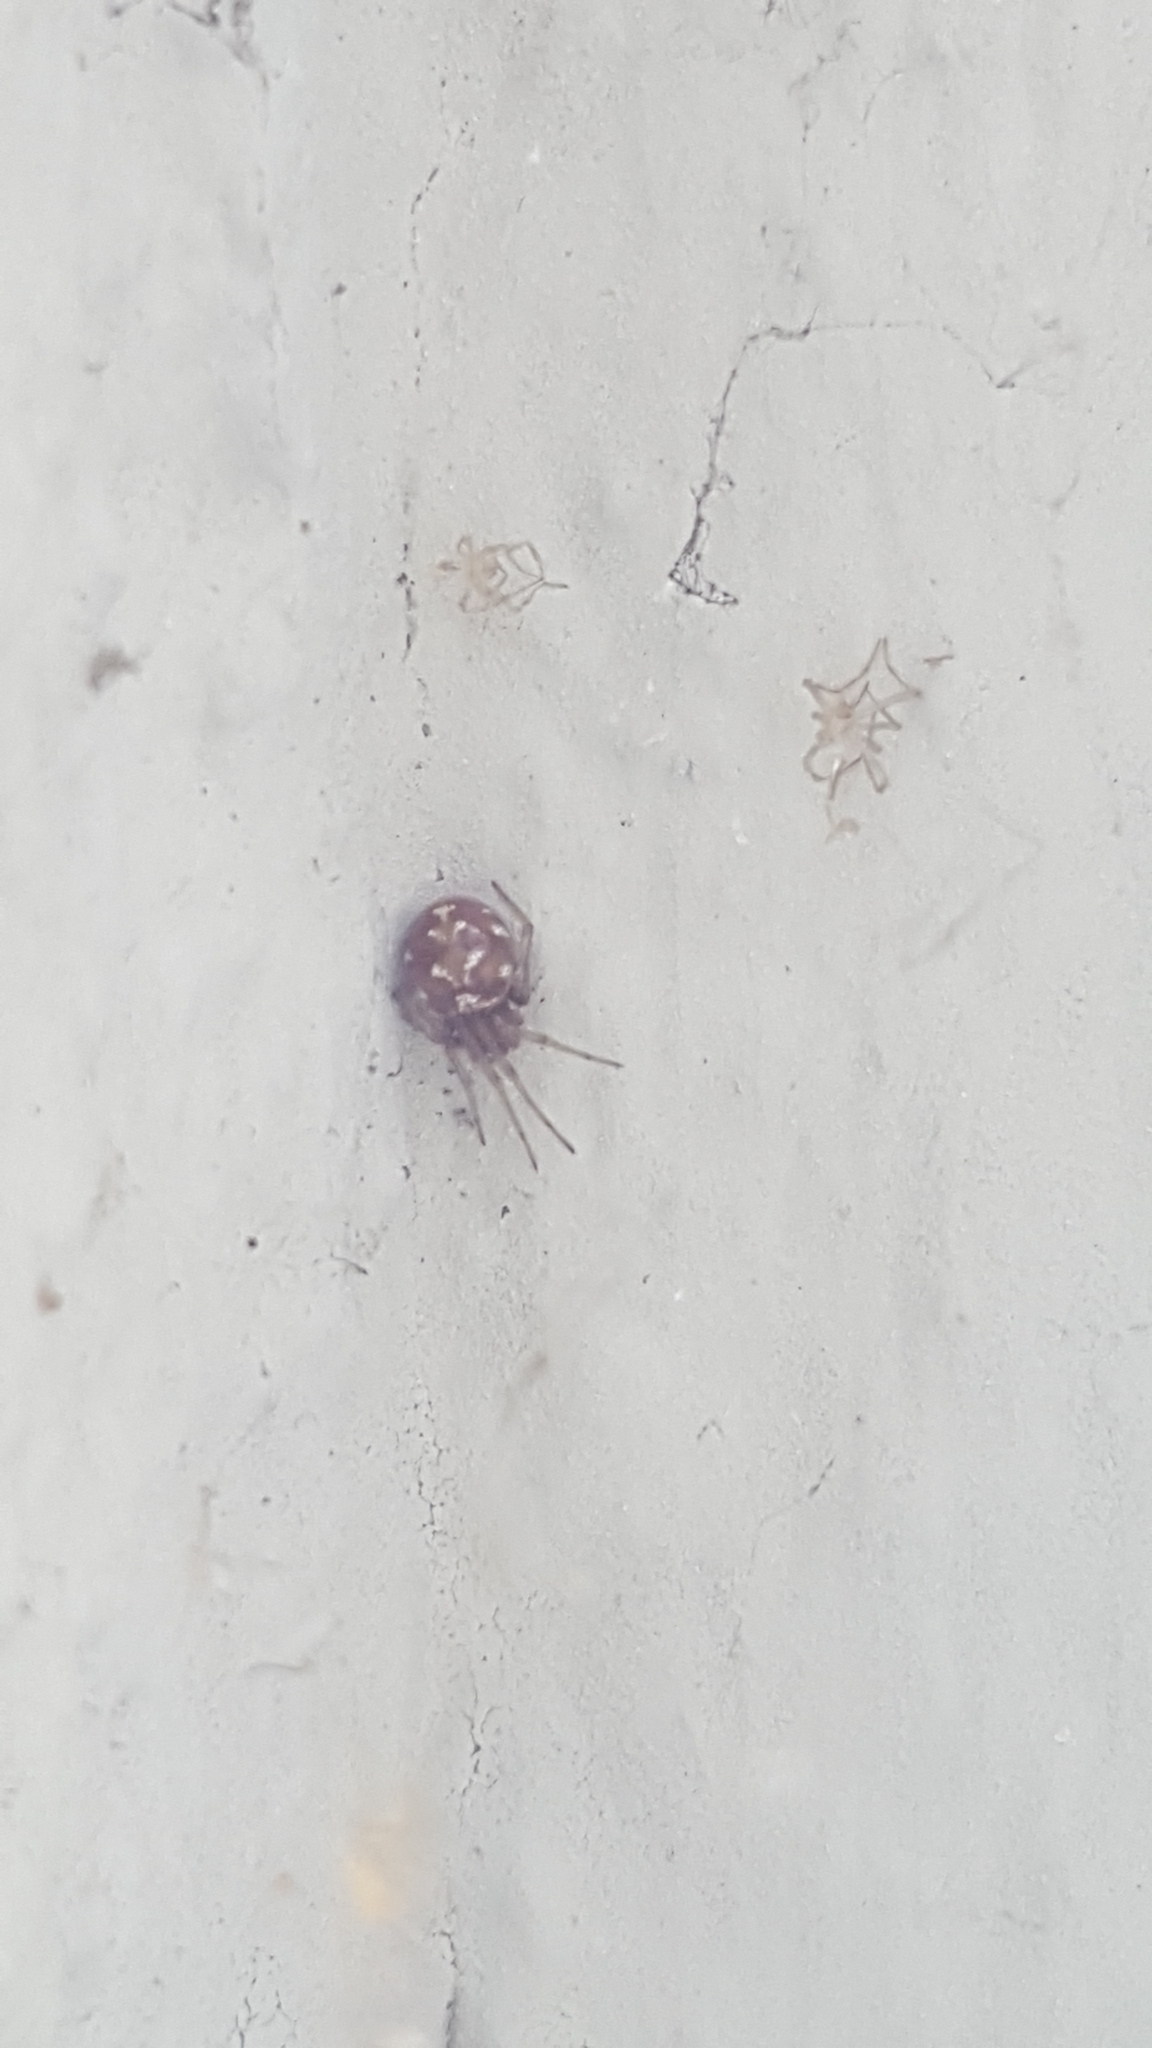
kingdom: Animalia
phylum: Arthropoda
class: Arachnida
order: Araneae
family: Theridiidae
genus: Steatoda
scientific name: Steatoda triangulosa
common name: Triangulate bud spider
